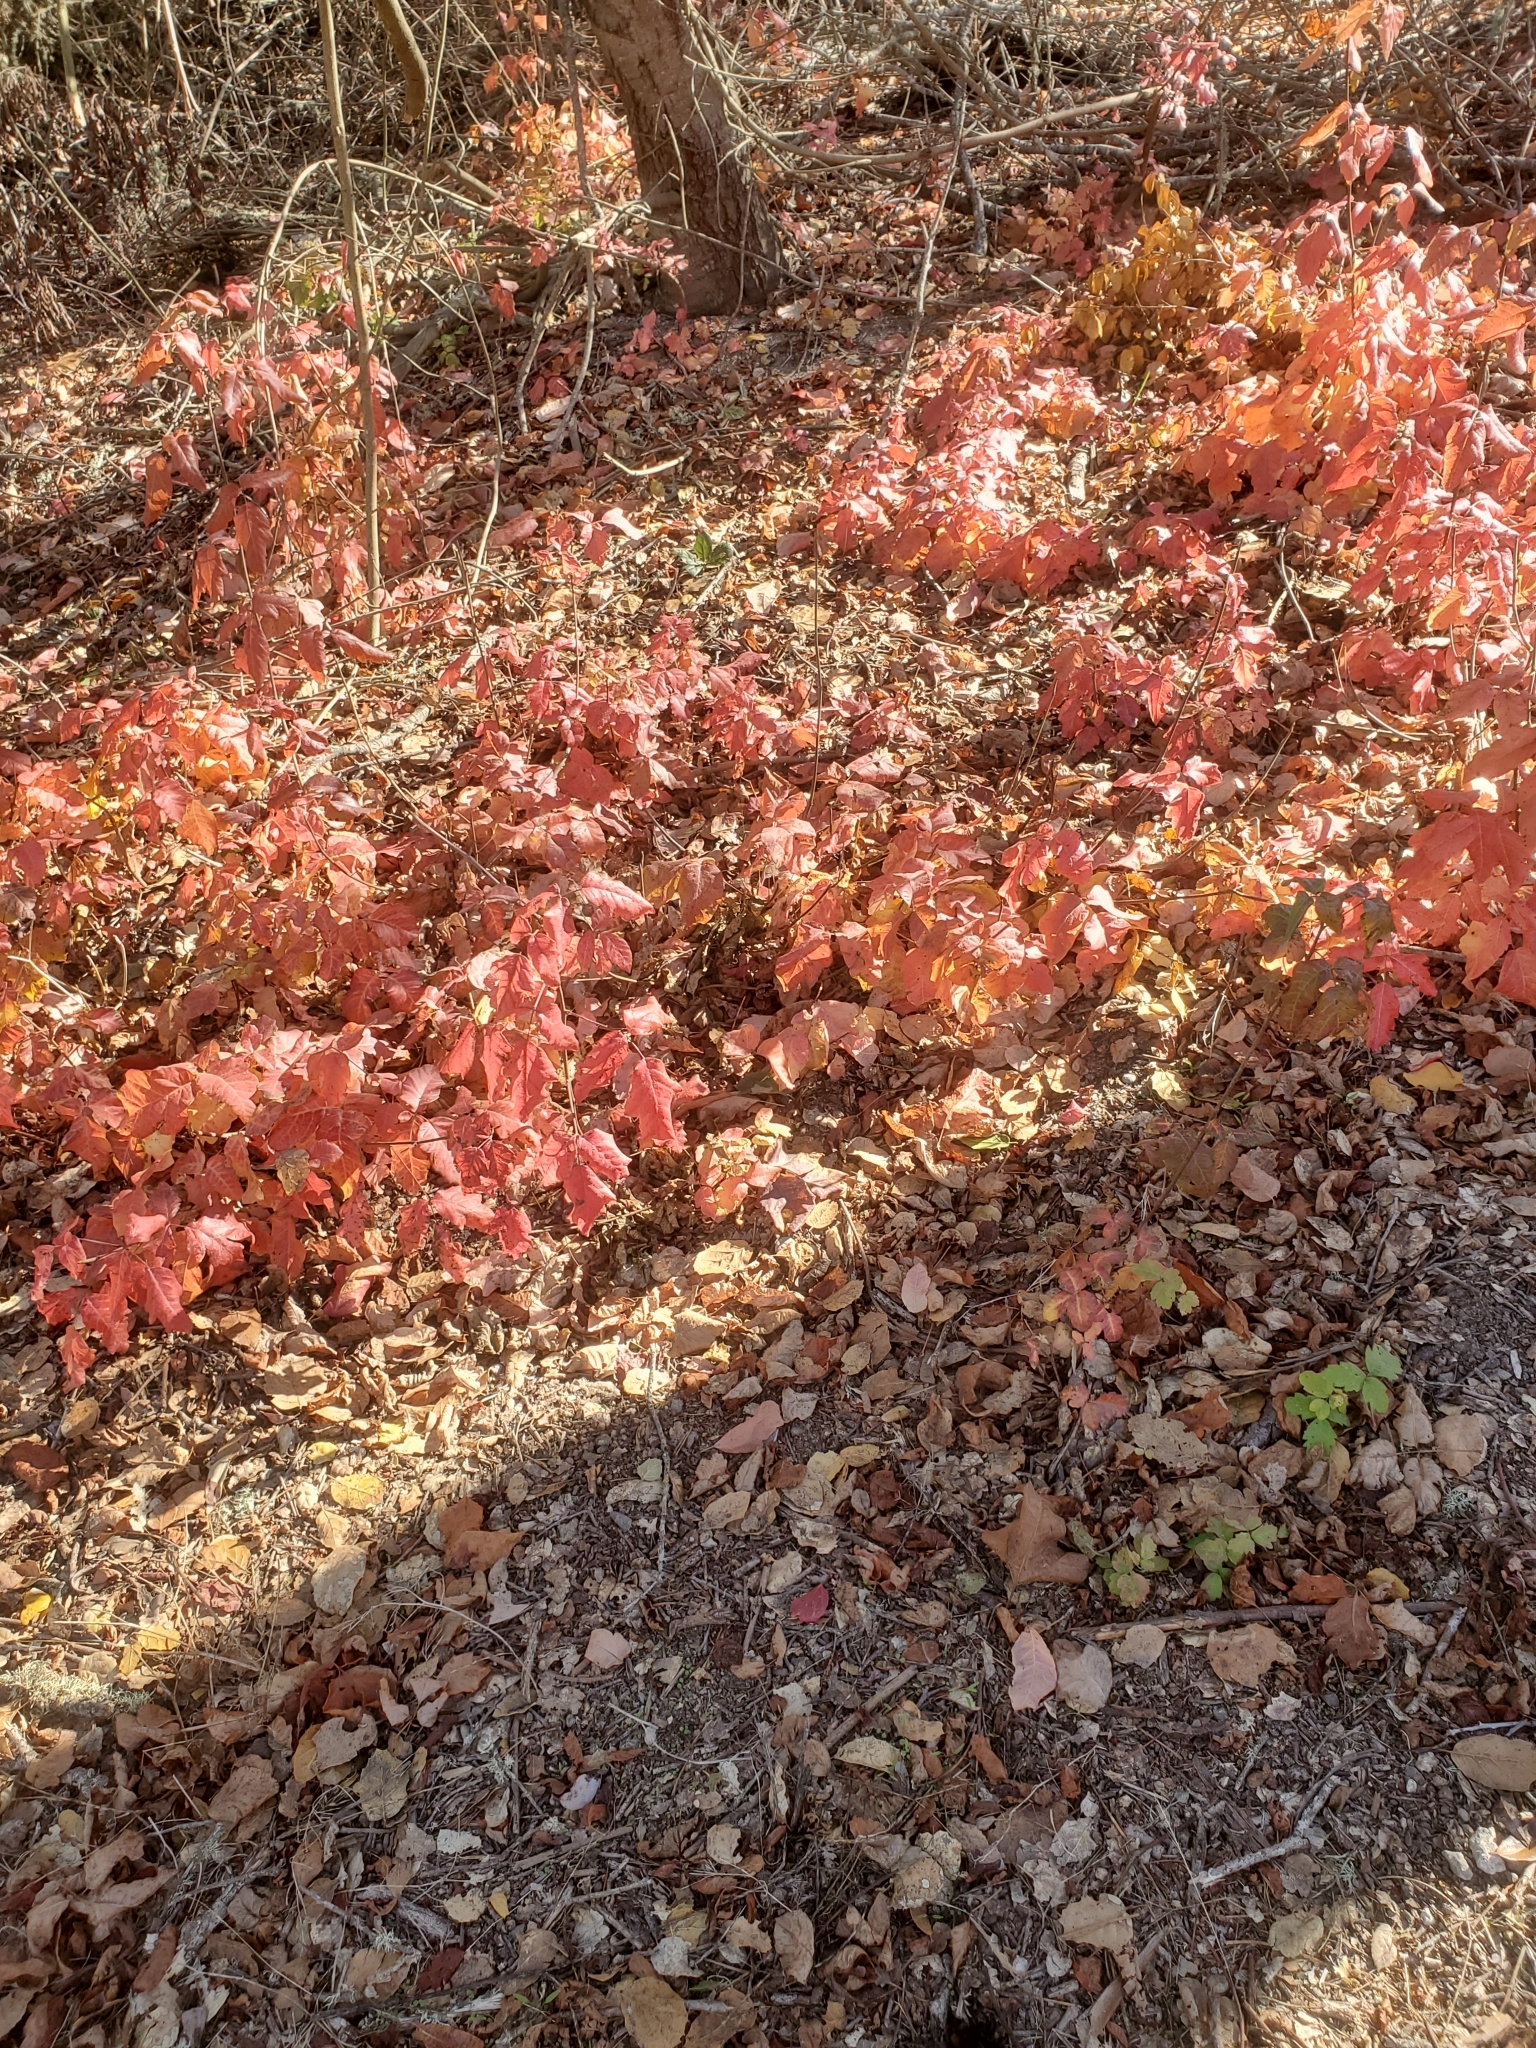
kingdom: Plantae
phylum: Tracheophyta
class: Magnoliopsida
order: Sapindales
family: Anacardiaceae
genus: Toxicodendron
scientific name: Toxicodendron diversilobum
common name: Pacific poison-oak
